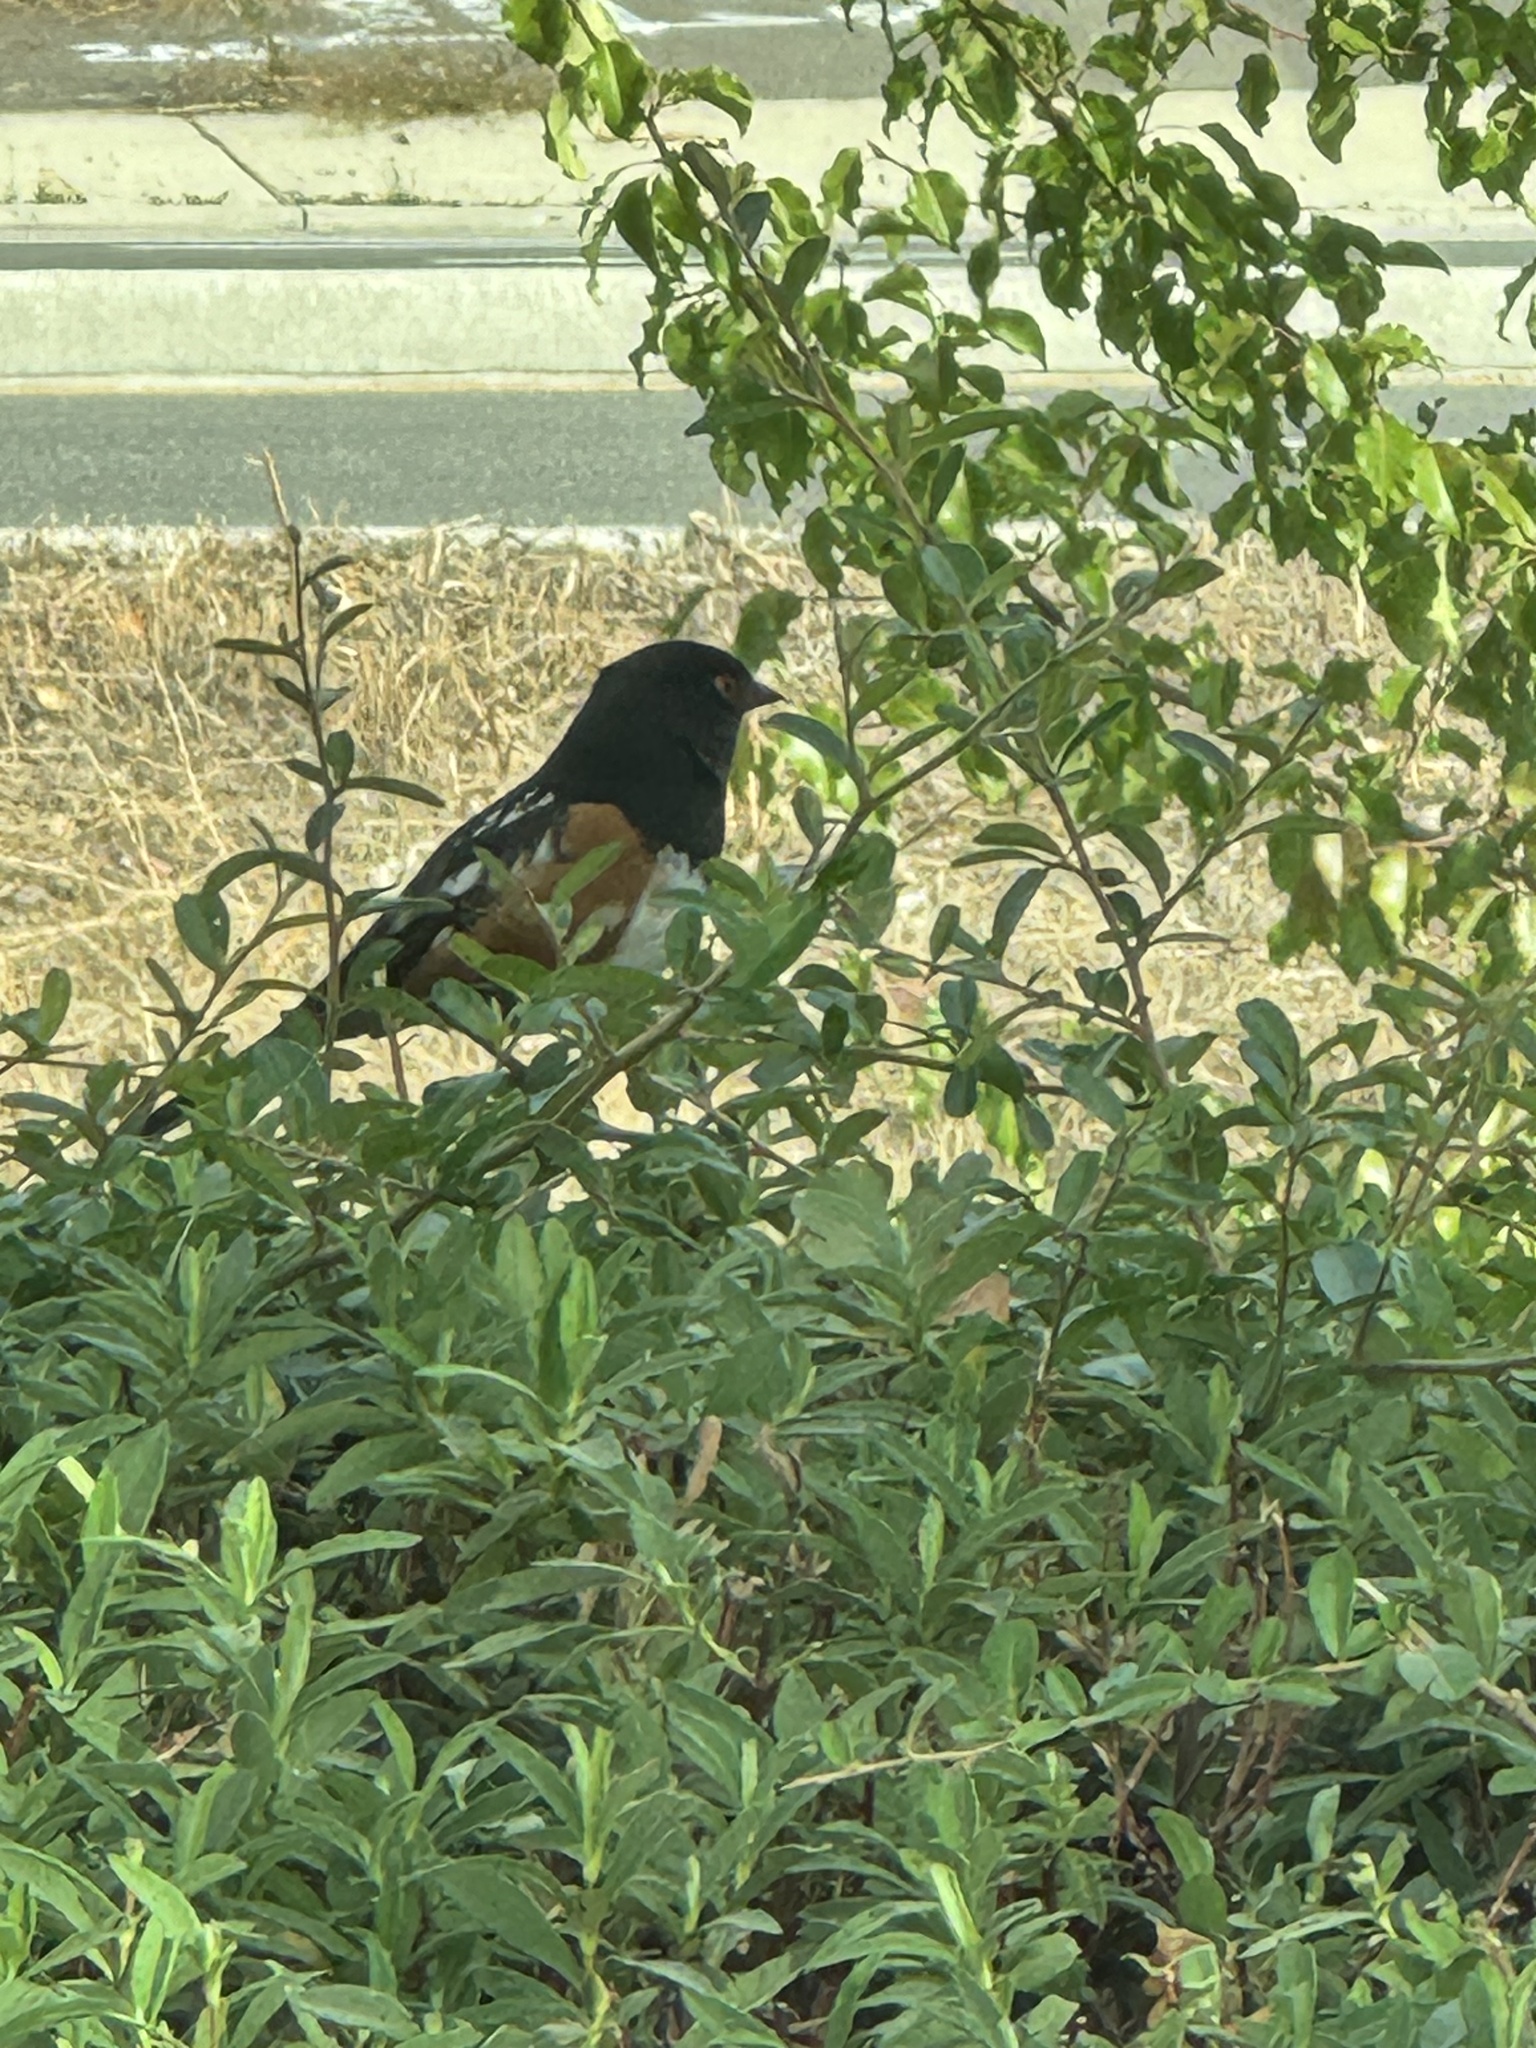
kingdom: Animalia
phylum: Chordata
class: Aves
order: Passeriformes
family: Passerellidae
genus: Pipilo
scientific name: Pipilo maculatus
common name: Spotted towhee
